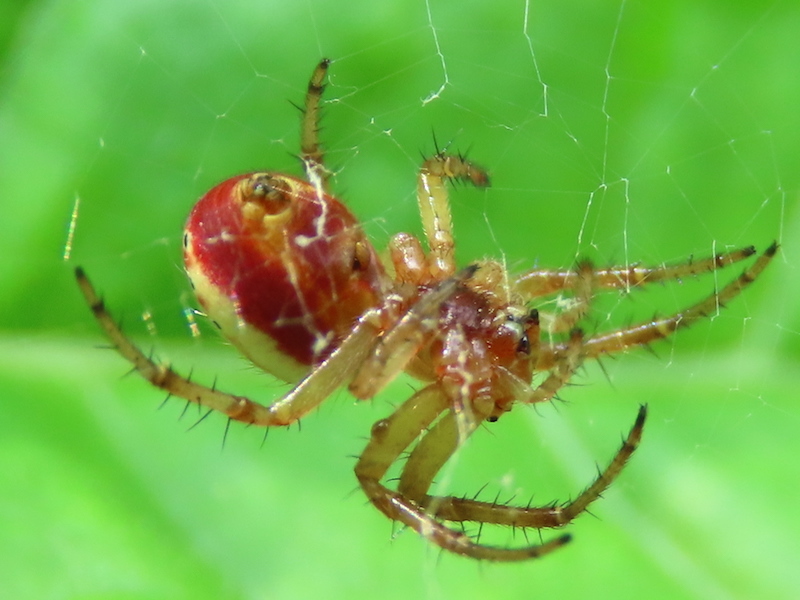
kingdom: Animalia
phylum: Arthropoda
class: Arachnida
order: Araneae
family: Araneidae
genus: Araniella
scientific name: Araniella displicata
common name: Sixspotted orb weaver
